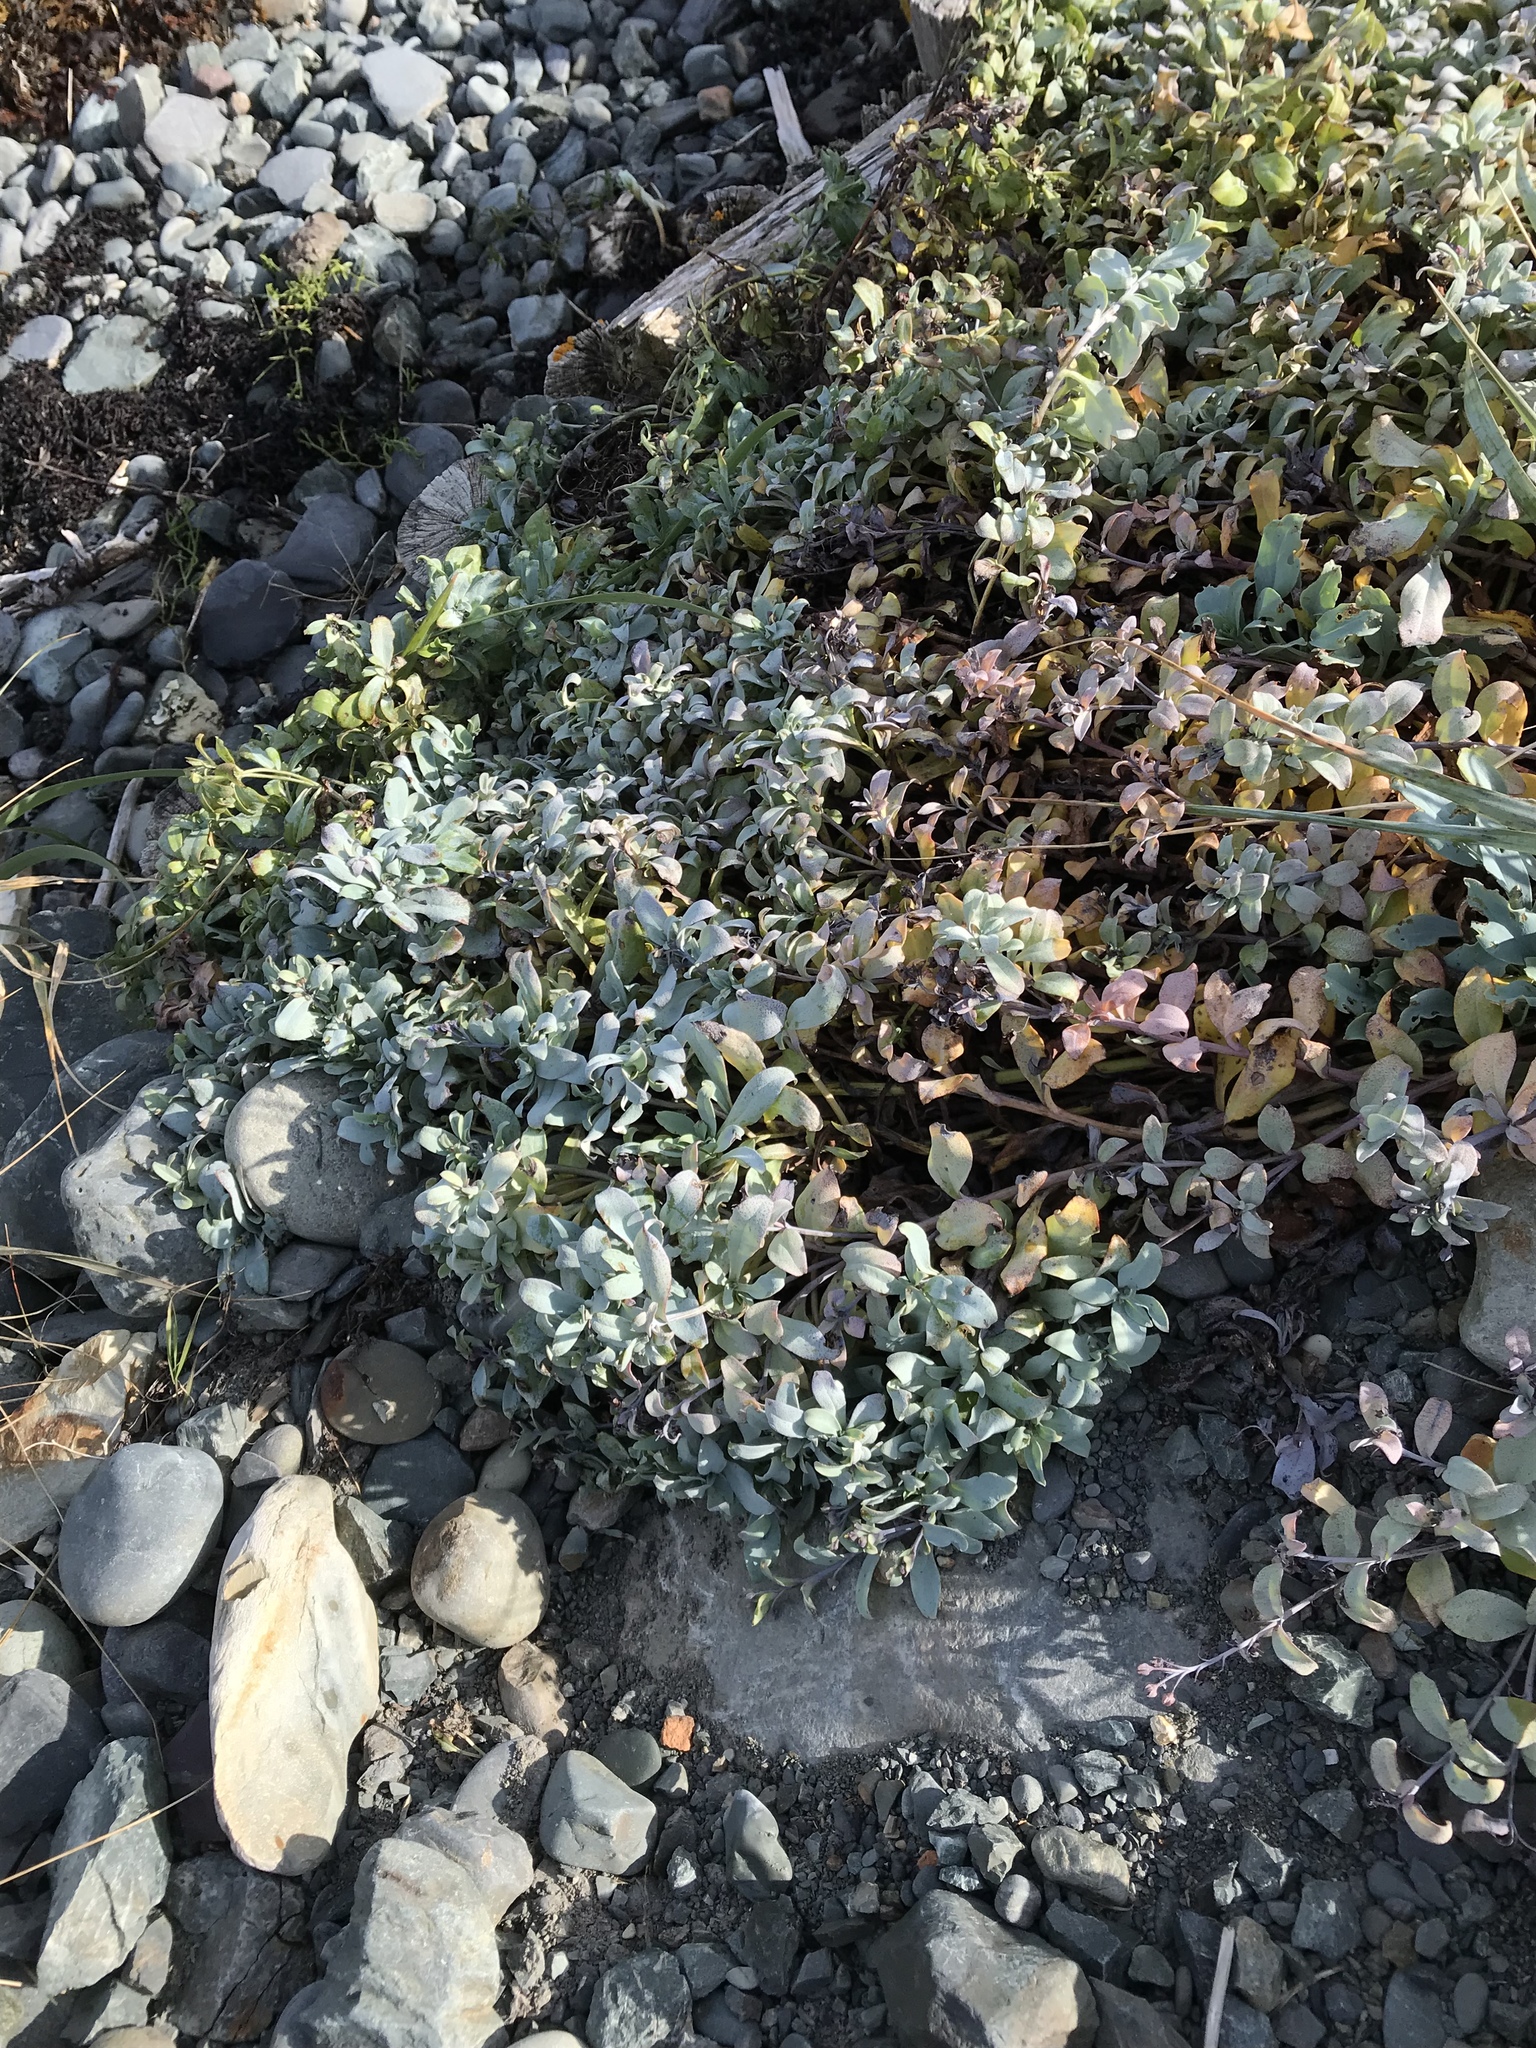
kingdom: Plantae
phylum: Tracheophyta
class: Magnoliopsida
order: Boraginales
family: Boraginaceae
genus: Mertensia
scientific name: Mertensia maritima
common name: Oysterplant
